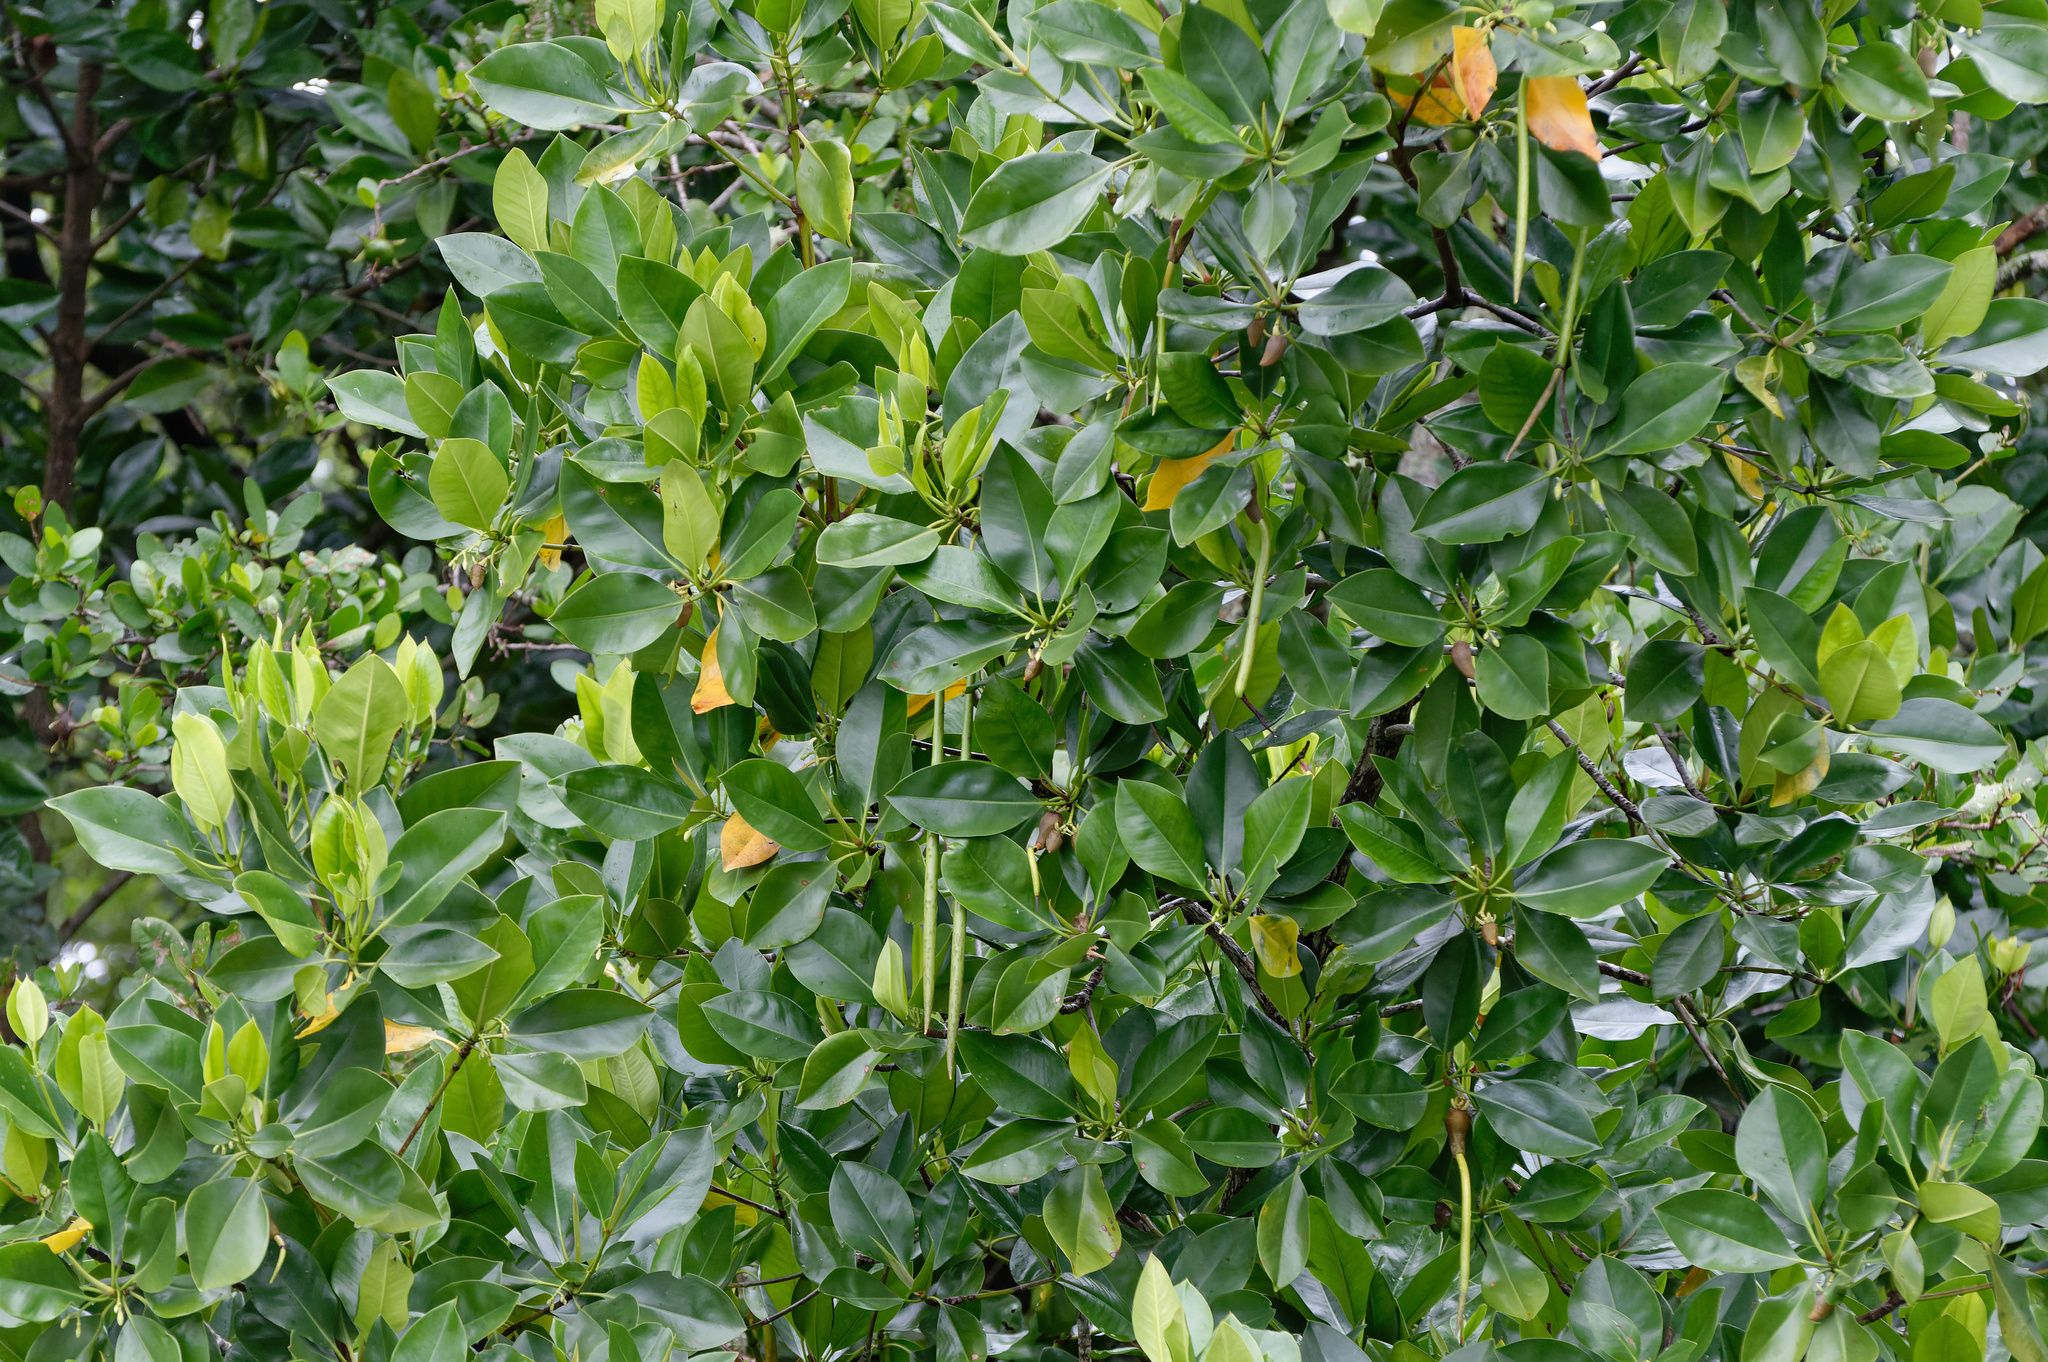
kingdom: Plantae
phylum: Tracheophyta
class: Magnoliopsida
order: Malpighiales
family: Rhizophoraceae
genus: Rhizophora
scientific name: Rhizophora stylosa
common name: Red mangrove
